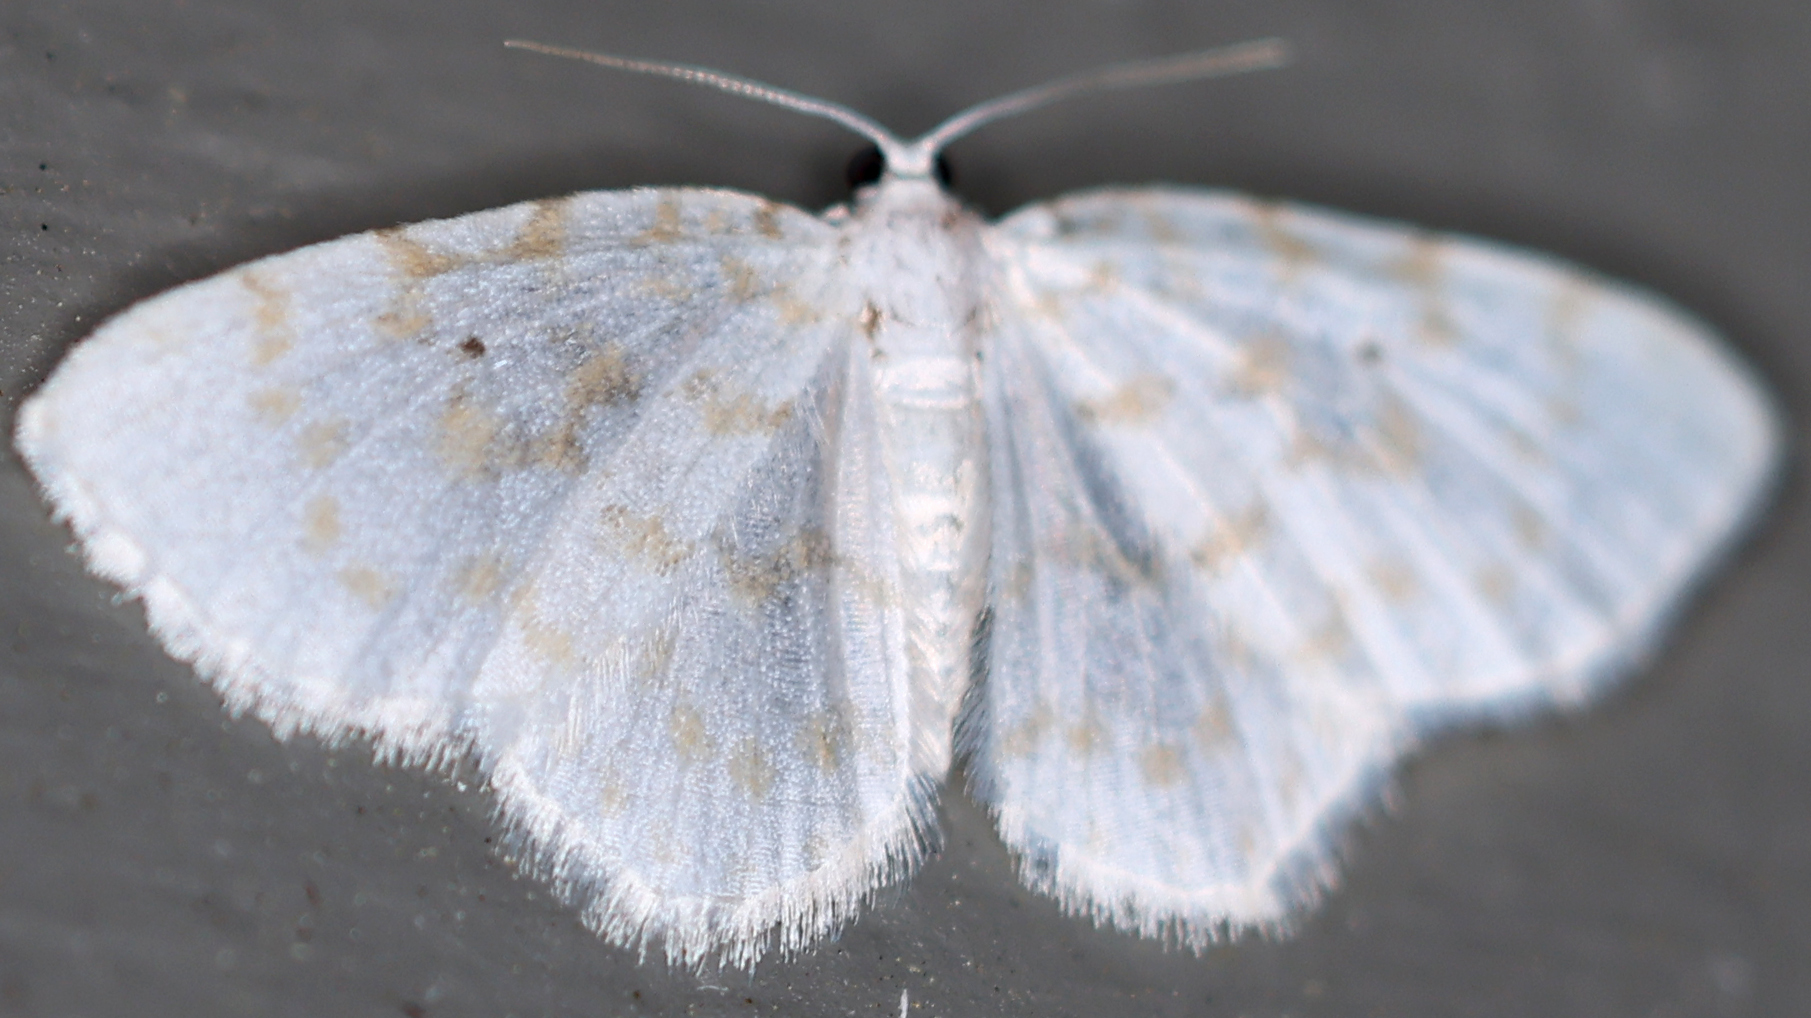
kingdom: Animalia
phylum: Arthropoda
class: Insecta
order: Lepidoptera
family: Geometridae
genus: Hydrelia
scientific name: Hydrelia albifera
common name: Fragile white carpet
